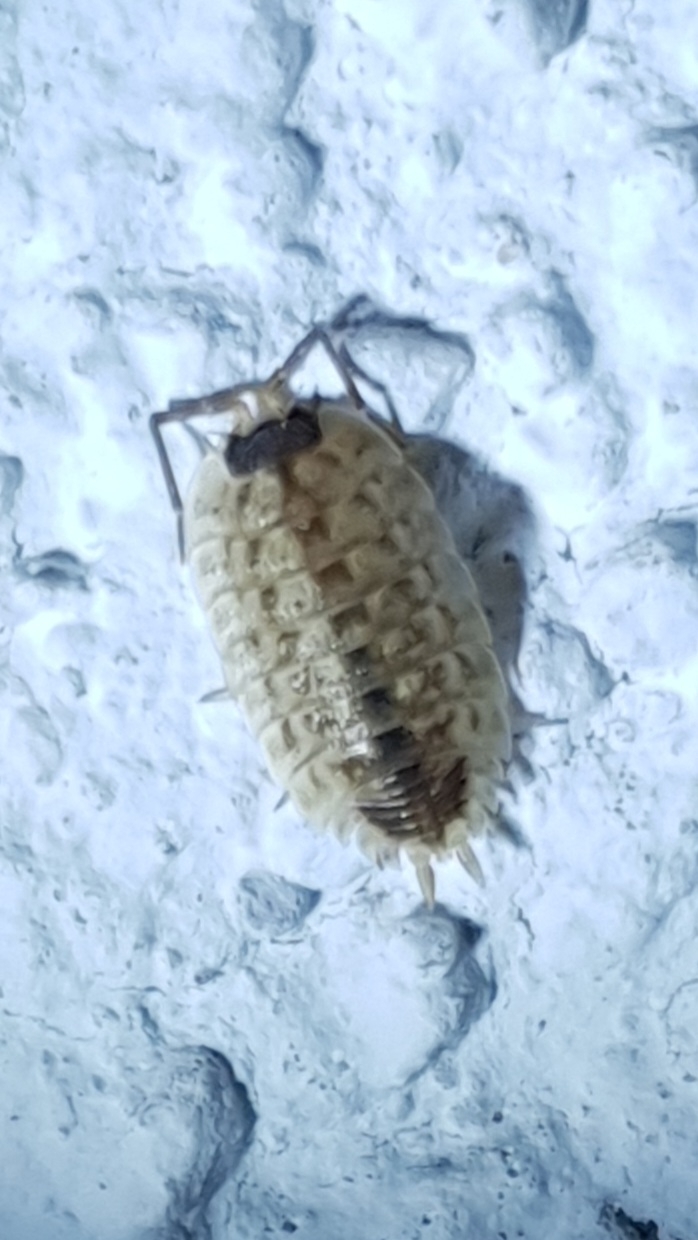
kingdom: Animalia
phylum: Arthropoda
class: Malacostraca
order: Isopoda
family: Porcellionidae
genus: Porcellio
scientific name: Porcellio spinicornis
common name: Painted woodlouse
